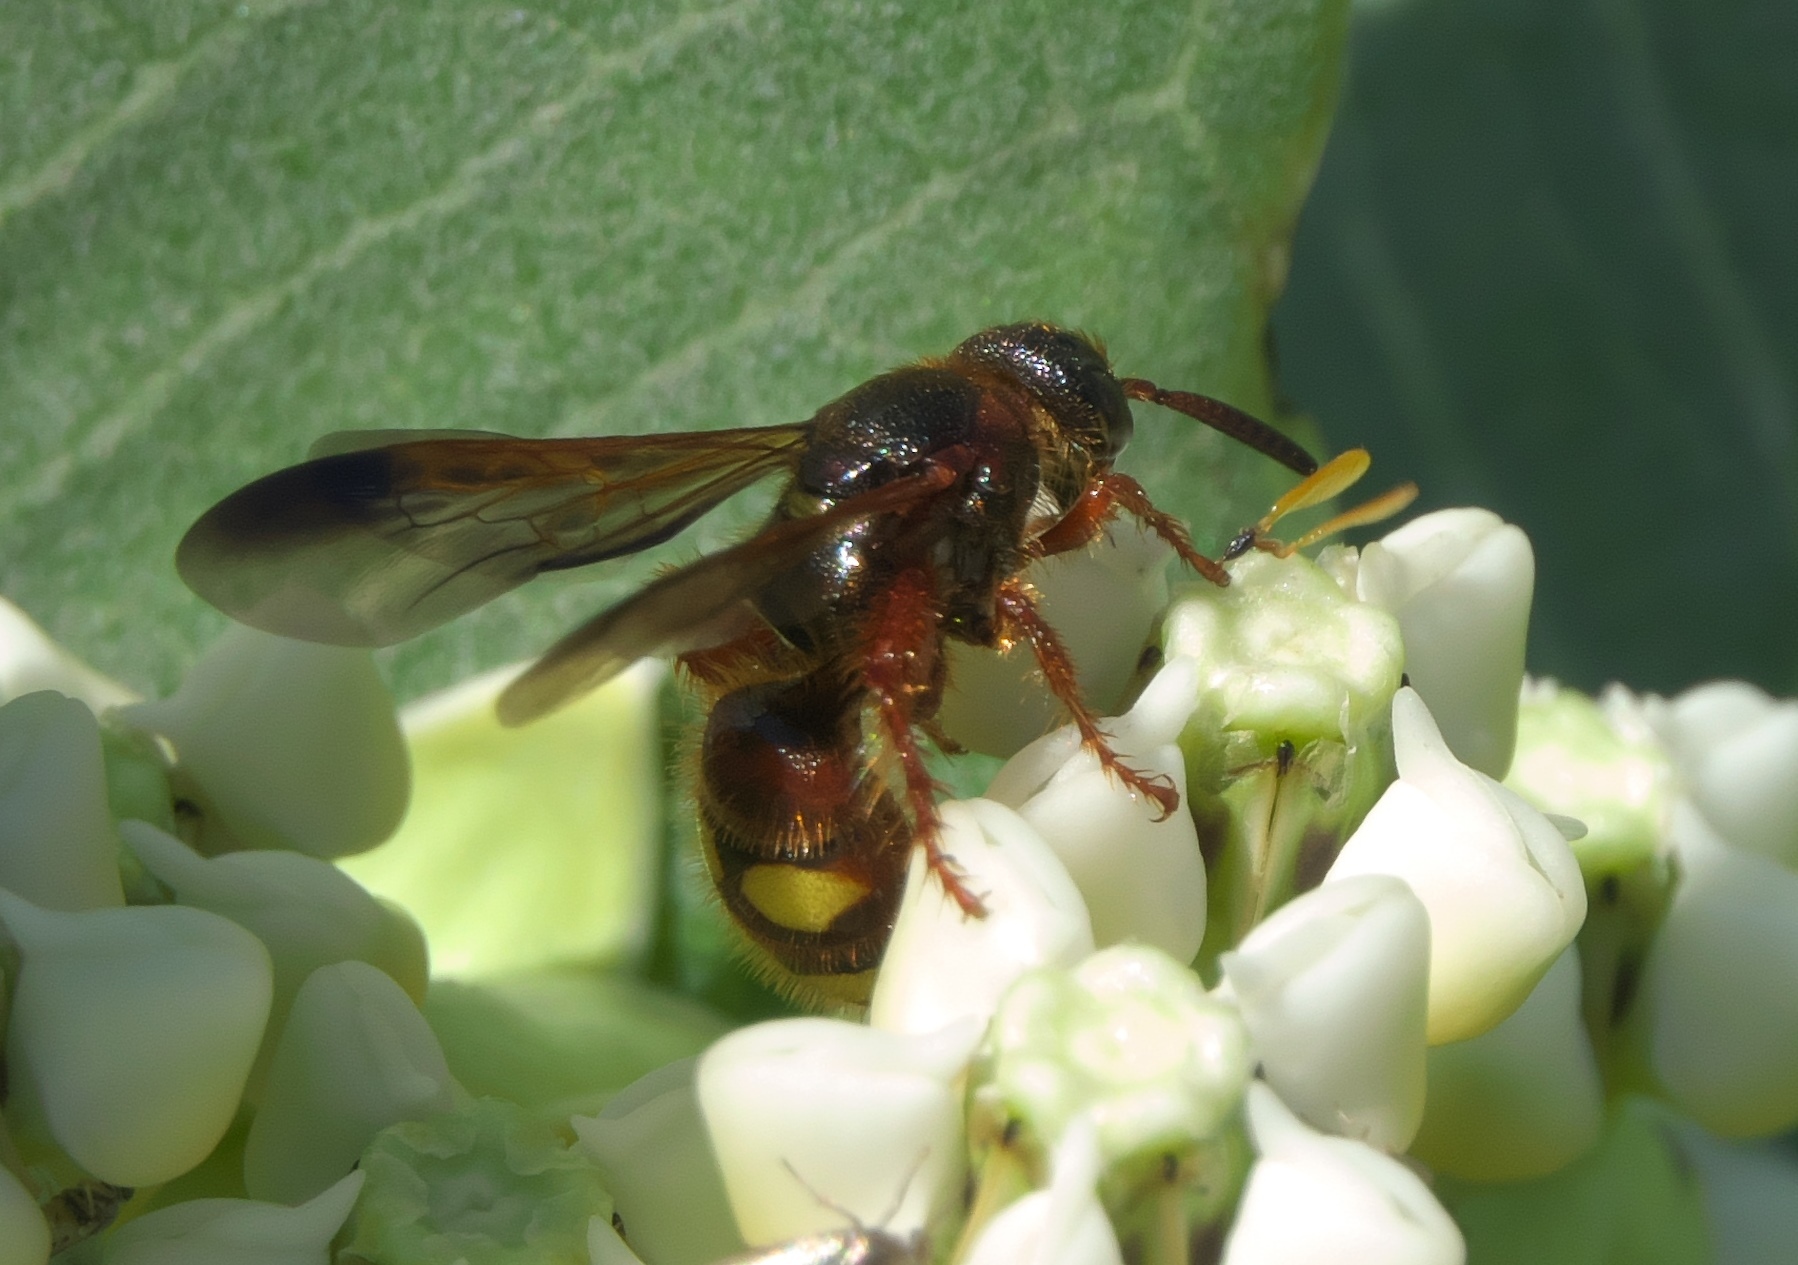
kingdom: Animalia
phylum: Arthropoda
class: Insecta
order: Hymenoptera
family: Scoliidae
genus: Scolia
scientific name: Scolia nobilitata
